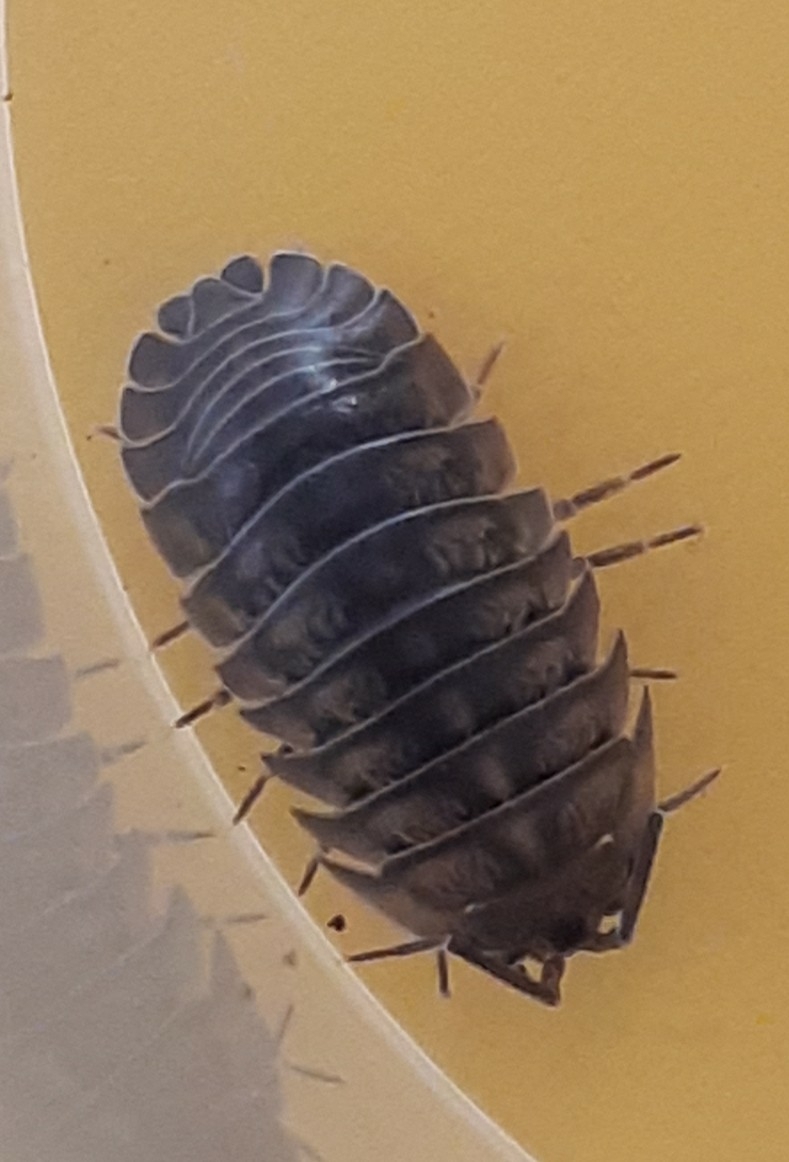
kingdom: Animalia
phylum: Arthropoda
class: Malacostraca
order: Isopoda
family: Armadillidiidae
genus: Armadillidium
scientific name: Armadillidium nasatum
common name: Isopod
